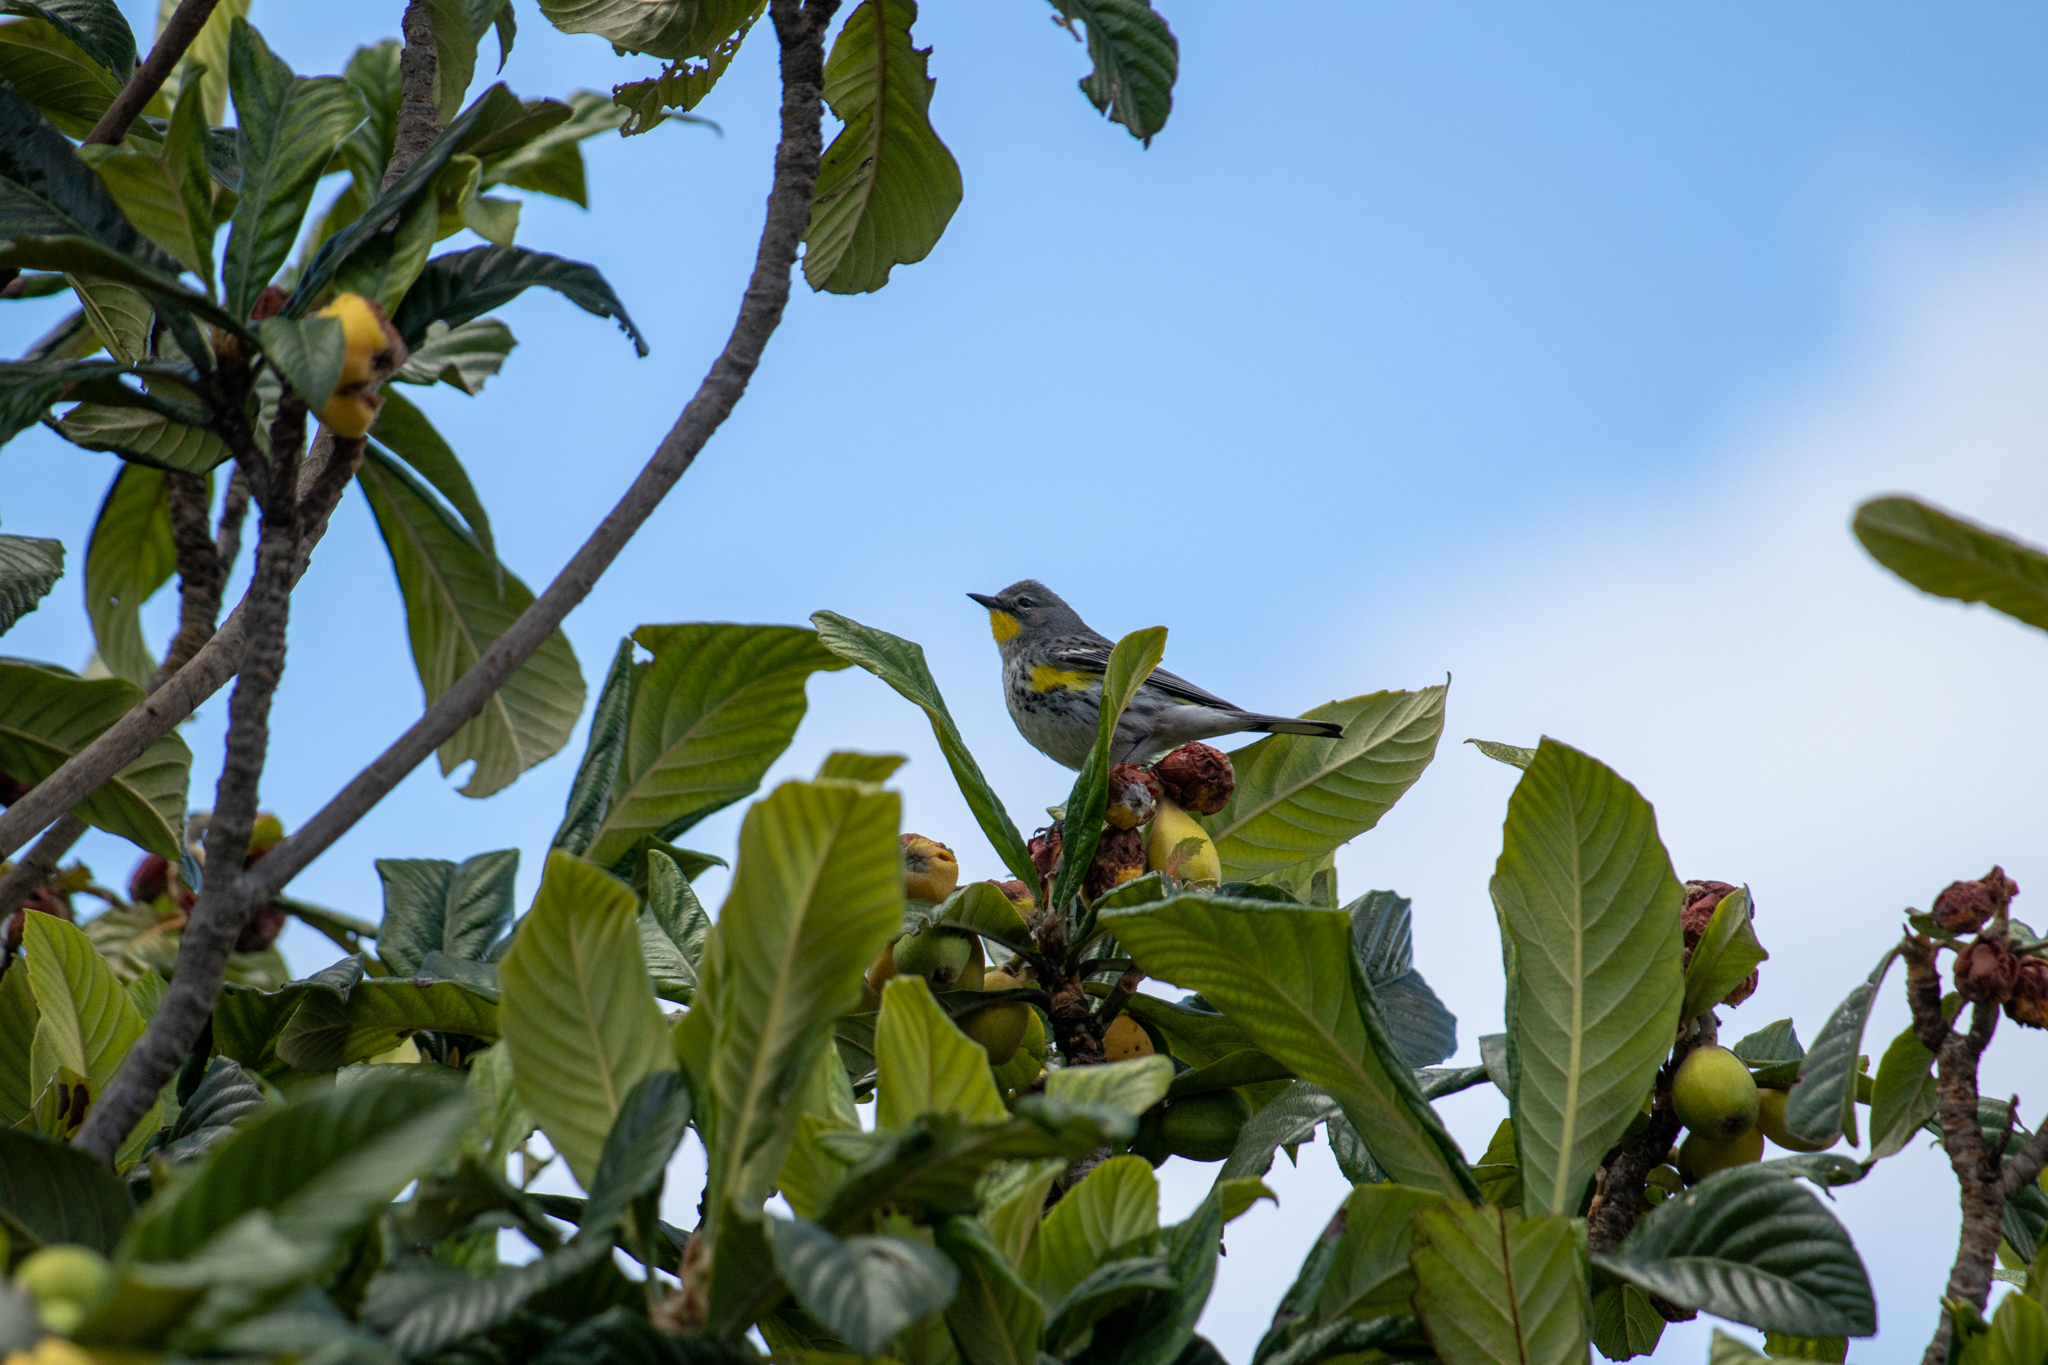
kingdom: Animalia
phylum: Chordata
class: Aves
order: Passeriformes
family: Parulidae
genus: Setophaga
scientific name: Setophaga auduboni
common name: Audubon's warbler
